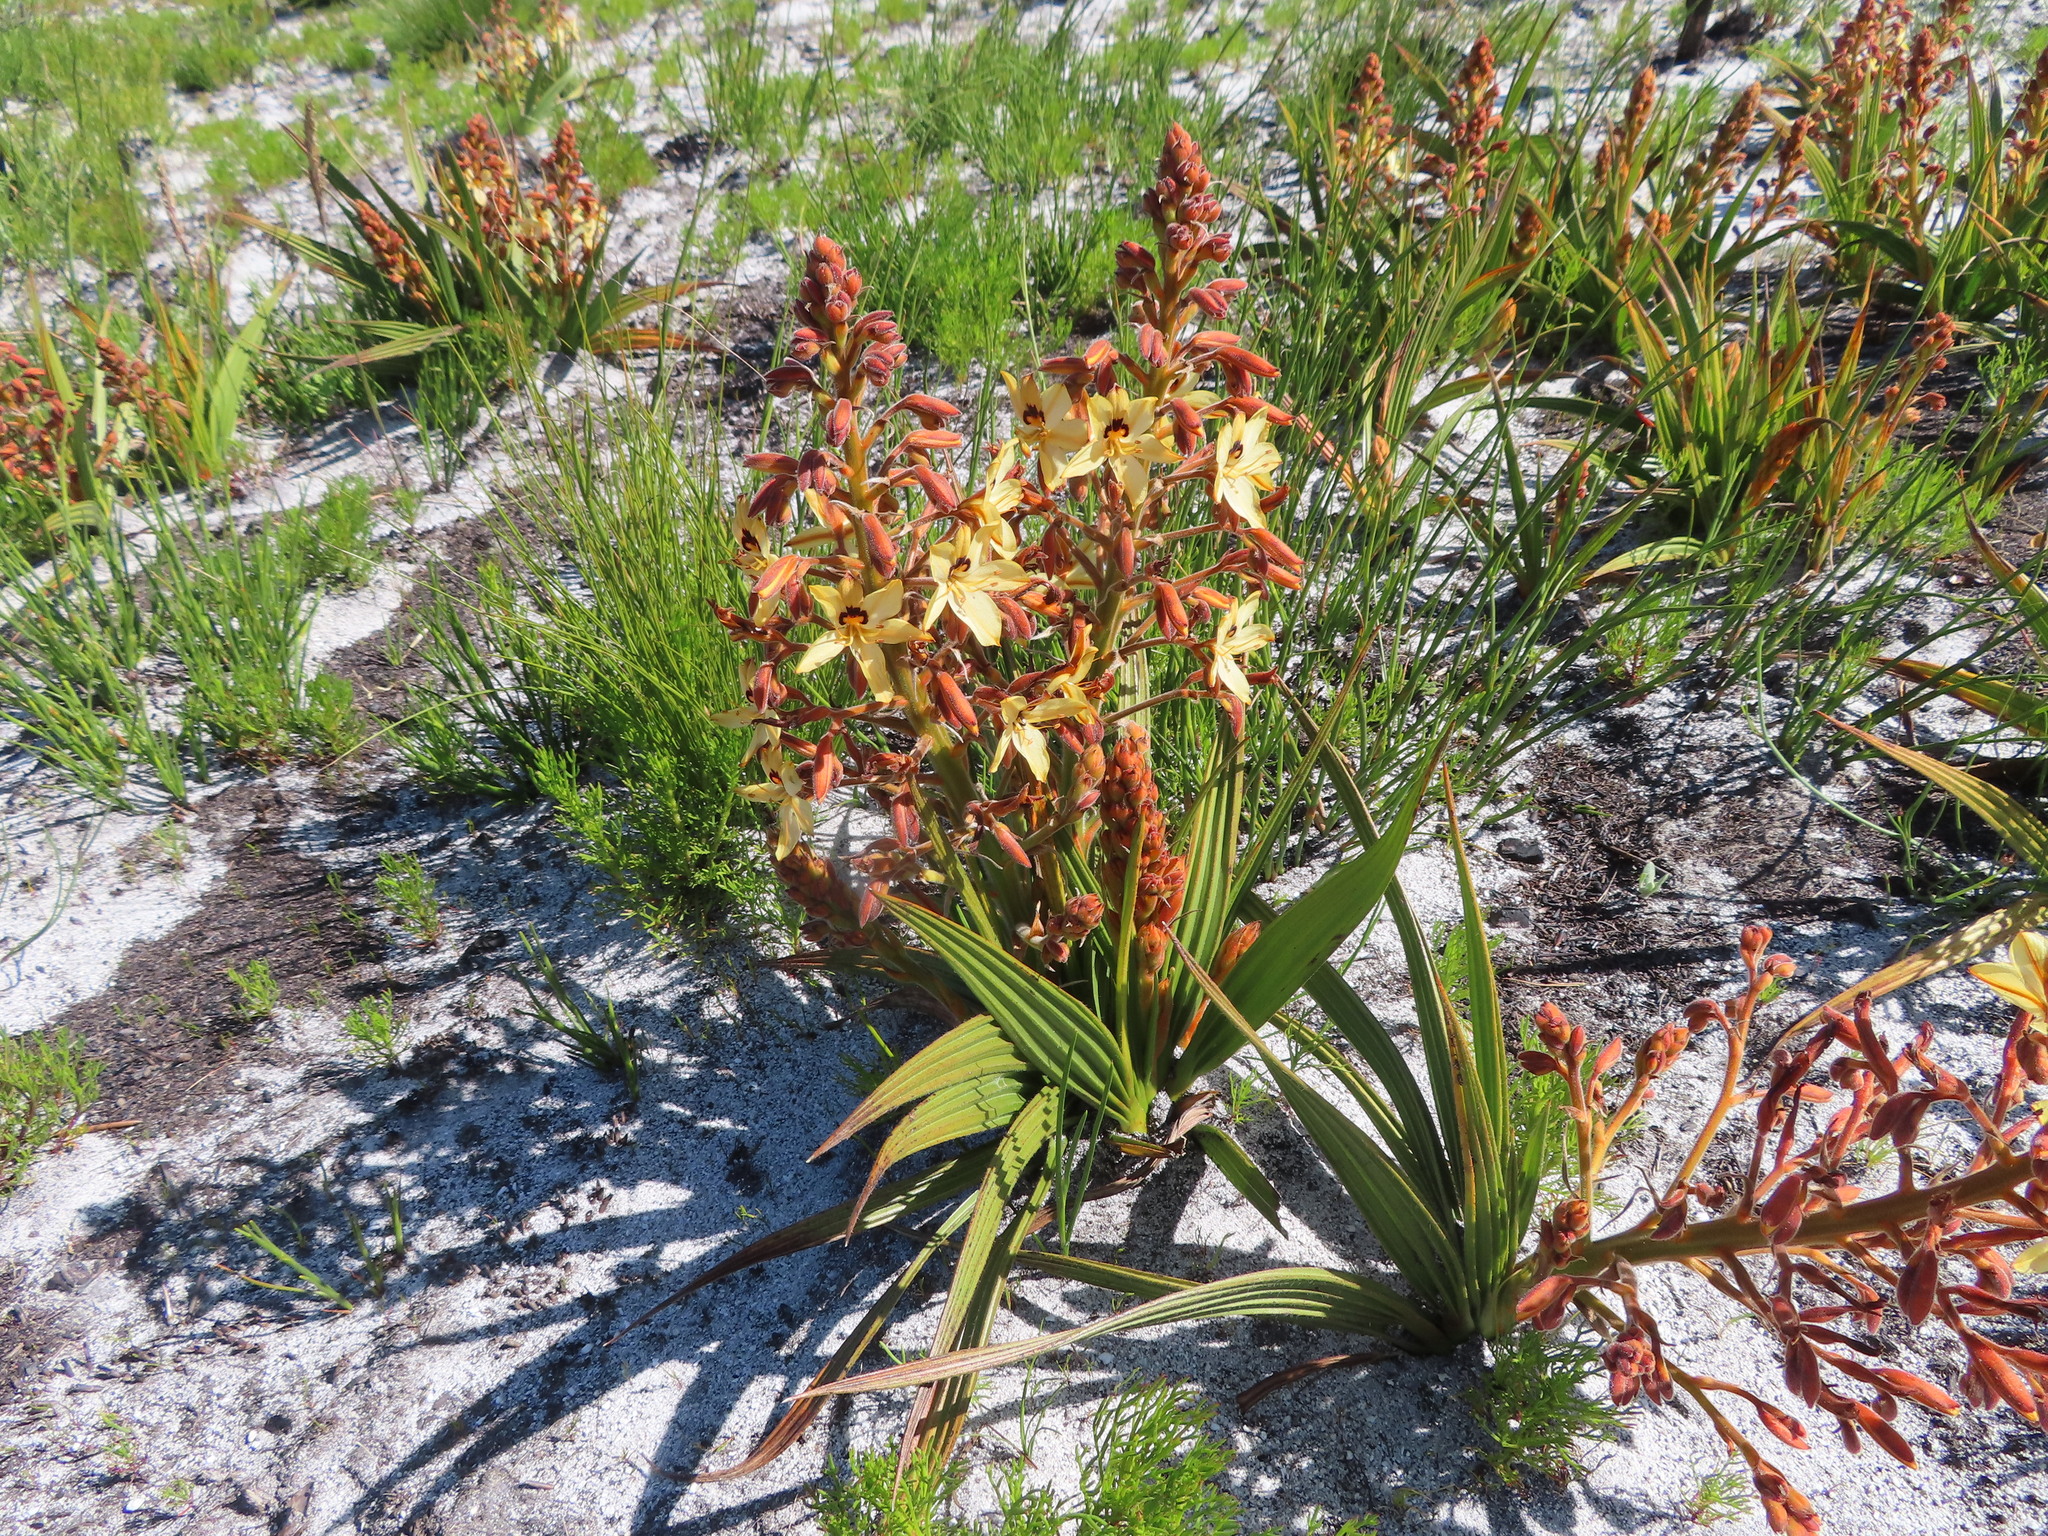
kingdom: Plantae
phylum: Tracheophyta
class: Liliopsida
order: Commelinales
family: Haemodoraceae
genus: Wachendorfia
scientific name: Wachendorfia paniculata
